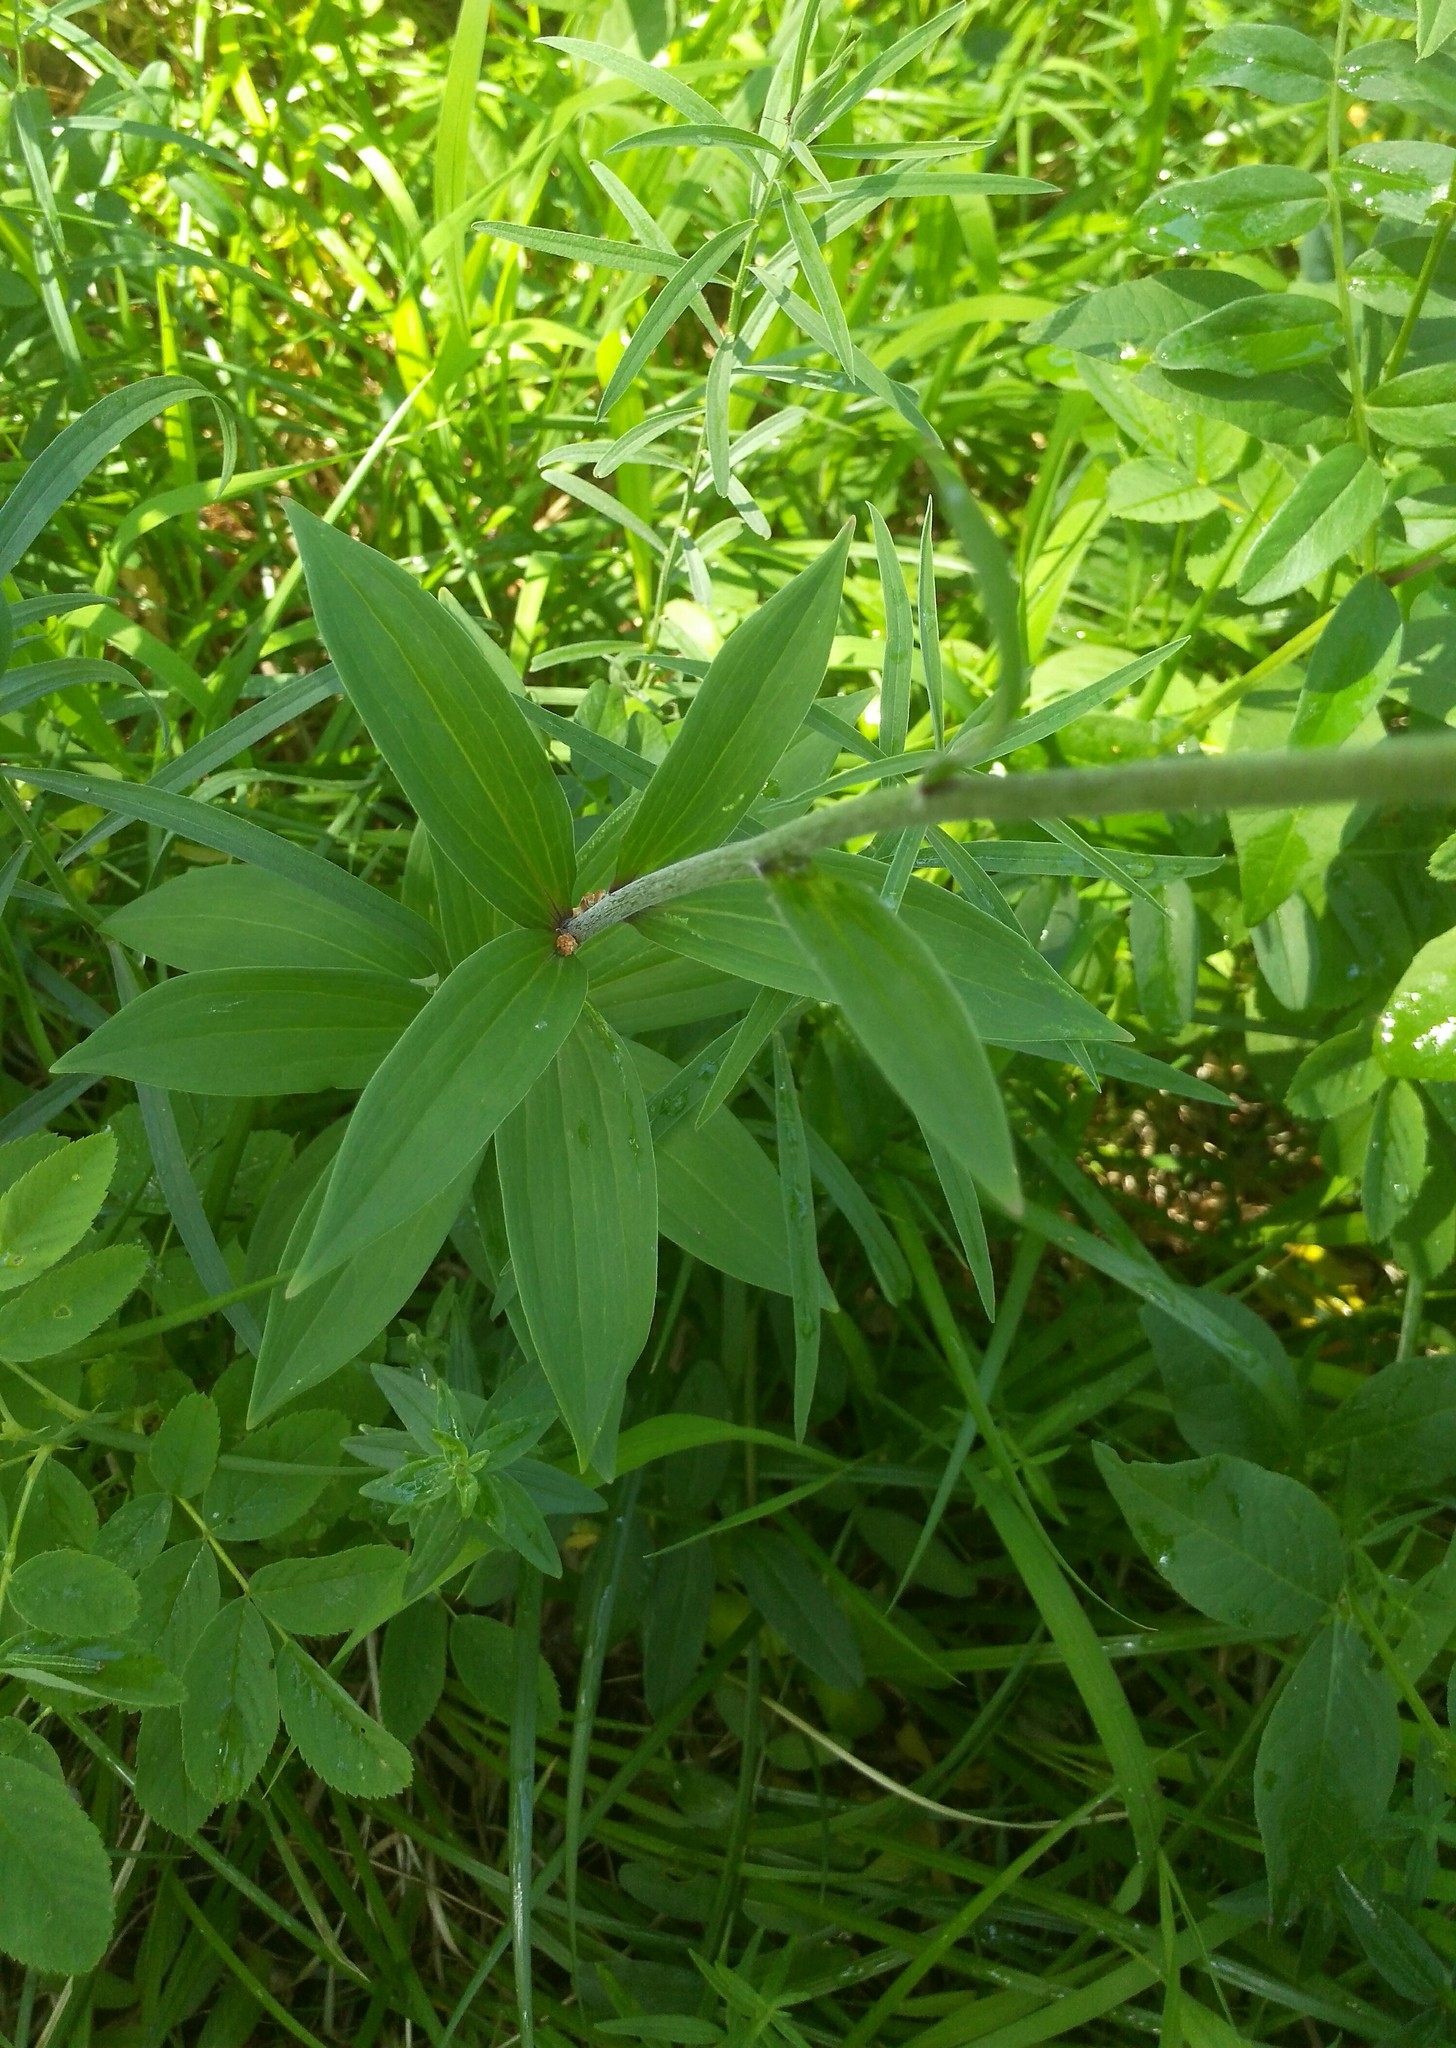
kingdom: Plantae
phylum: Tracheophyta
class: Liliopsida
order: Liliales
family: Liliaceae
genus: Lilium
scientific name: Lilium martagon
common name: Martagon lily
